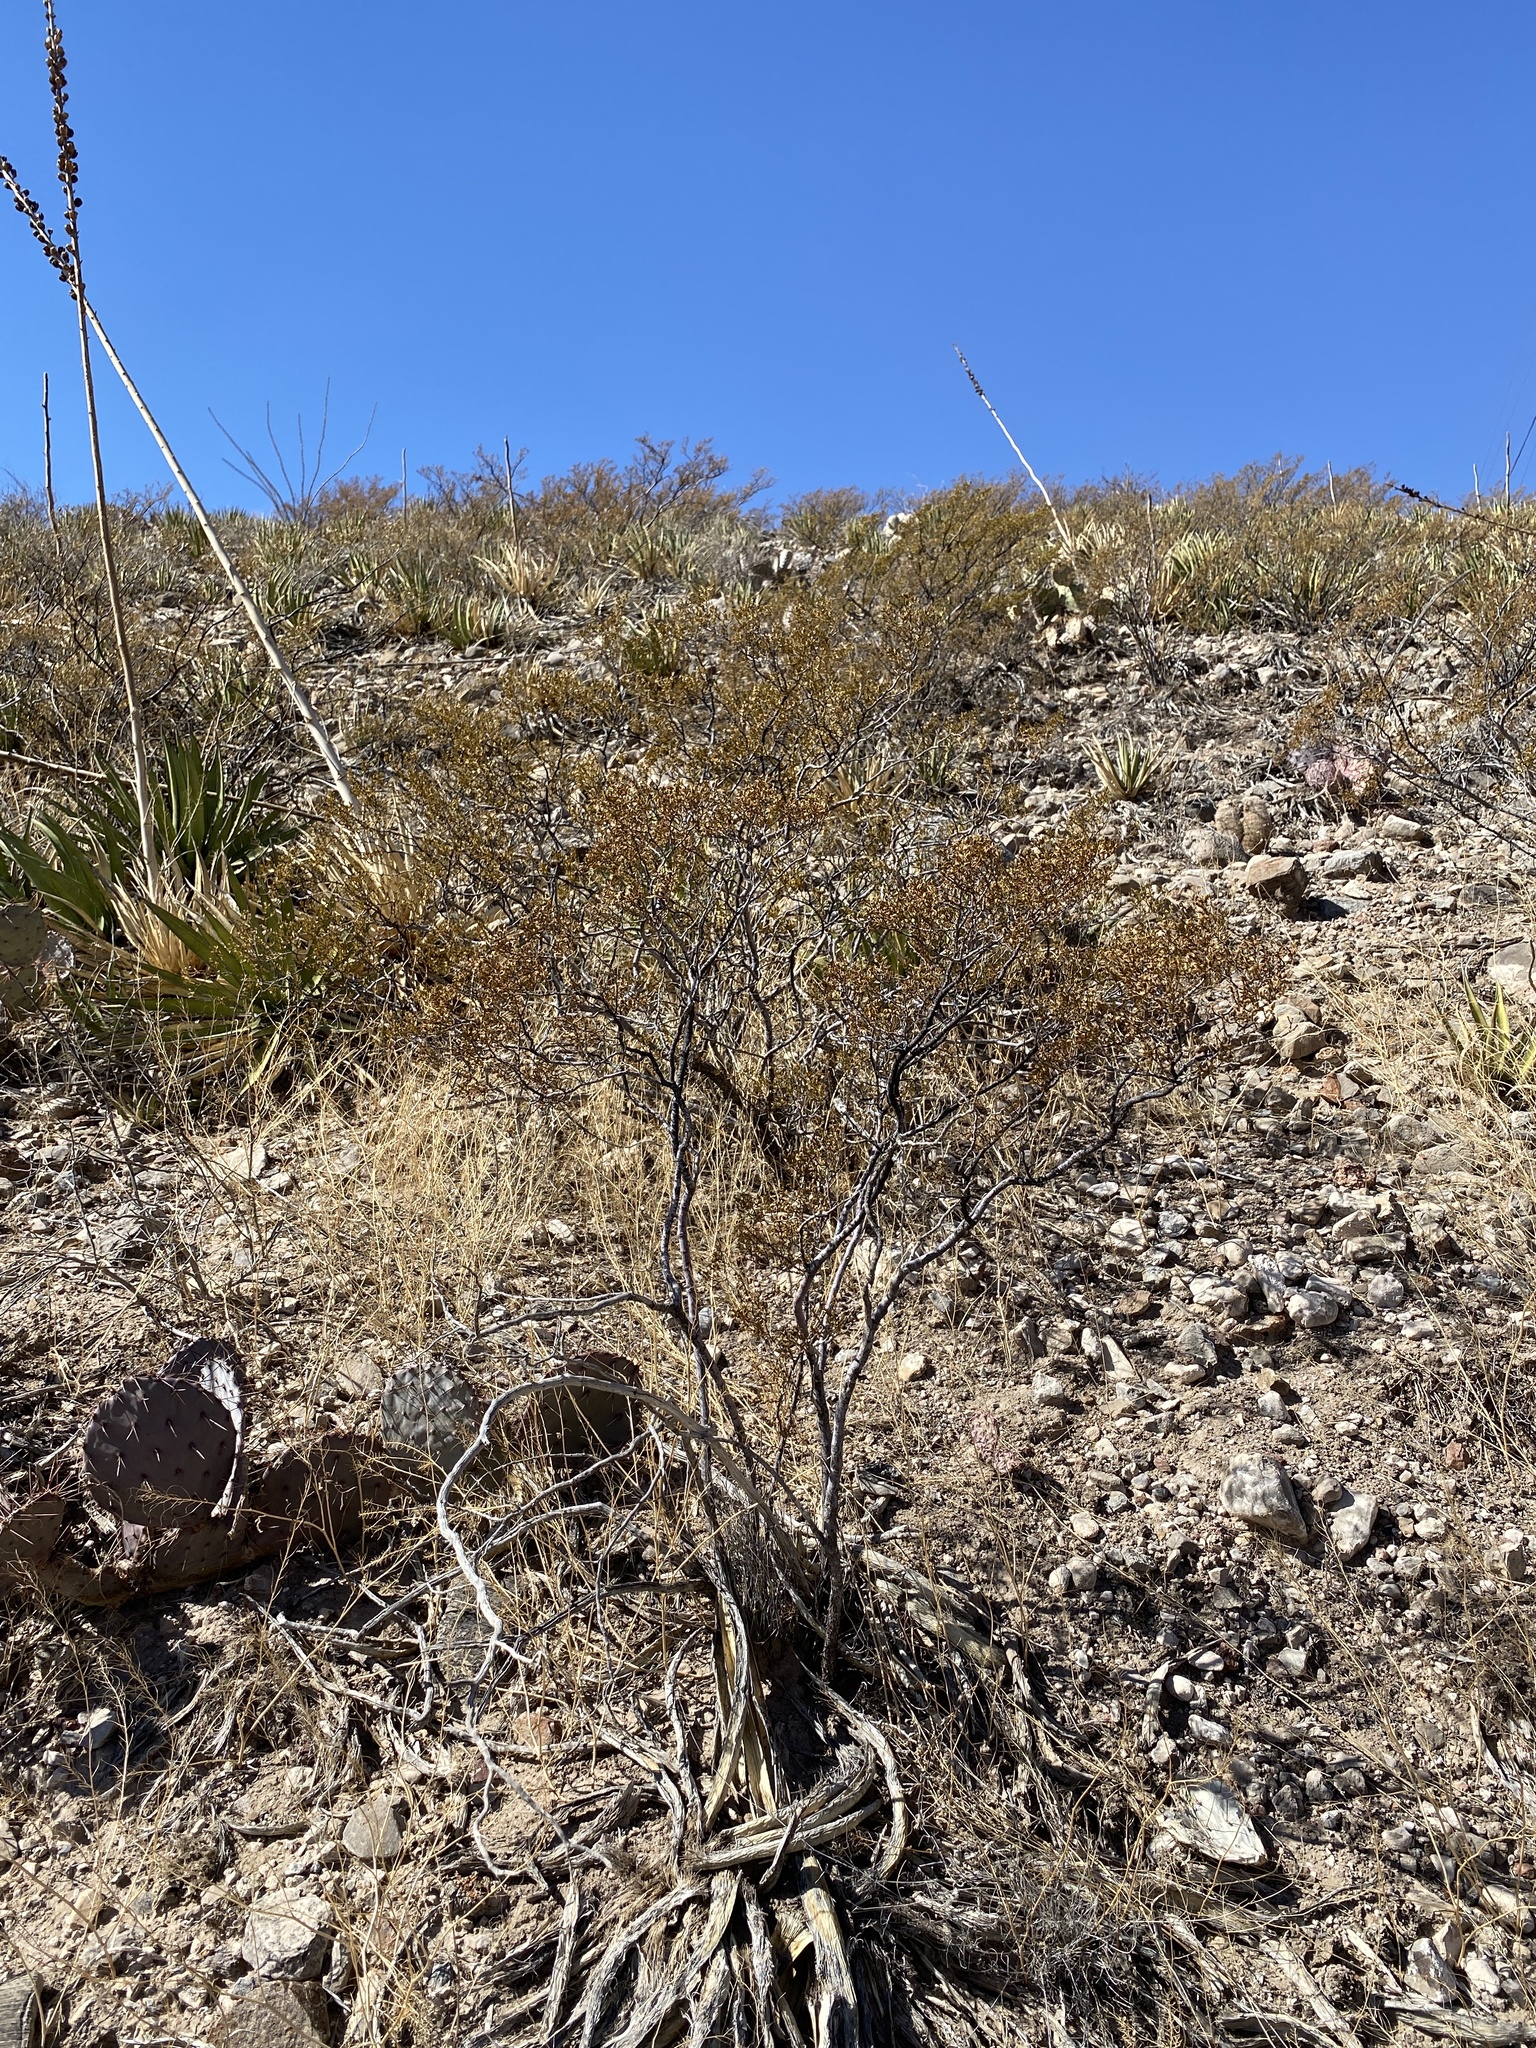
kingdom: Plantae
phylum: Tracheophyta
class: Magnoliopsida
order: Zygophyllales
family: Zygophyllaceae
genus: Larrea
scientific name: Larrea tridentata
